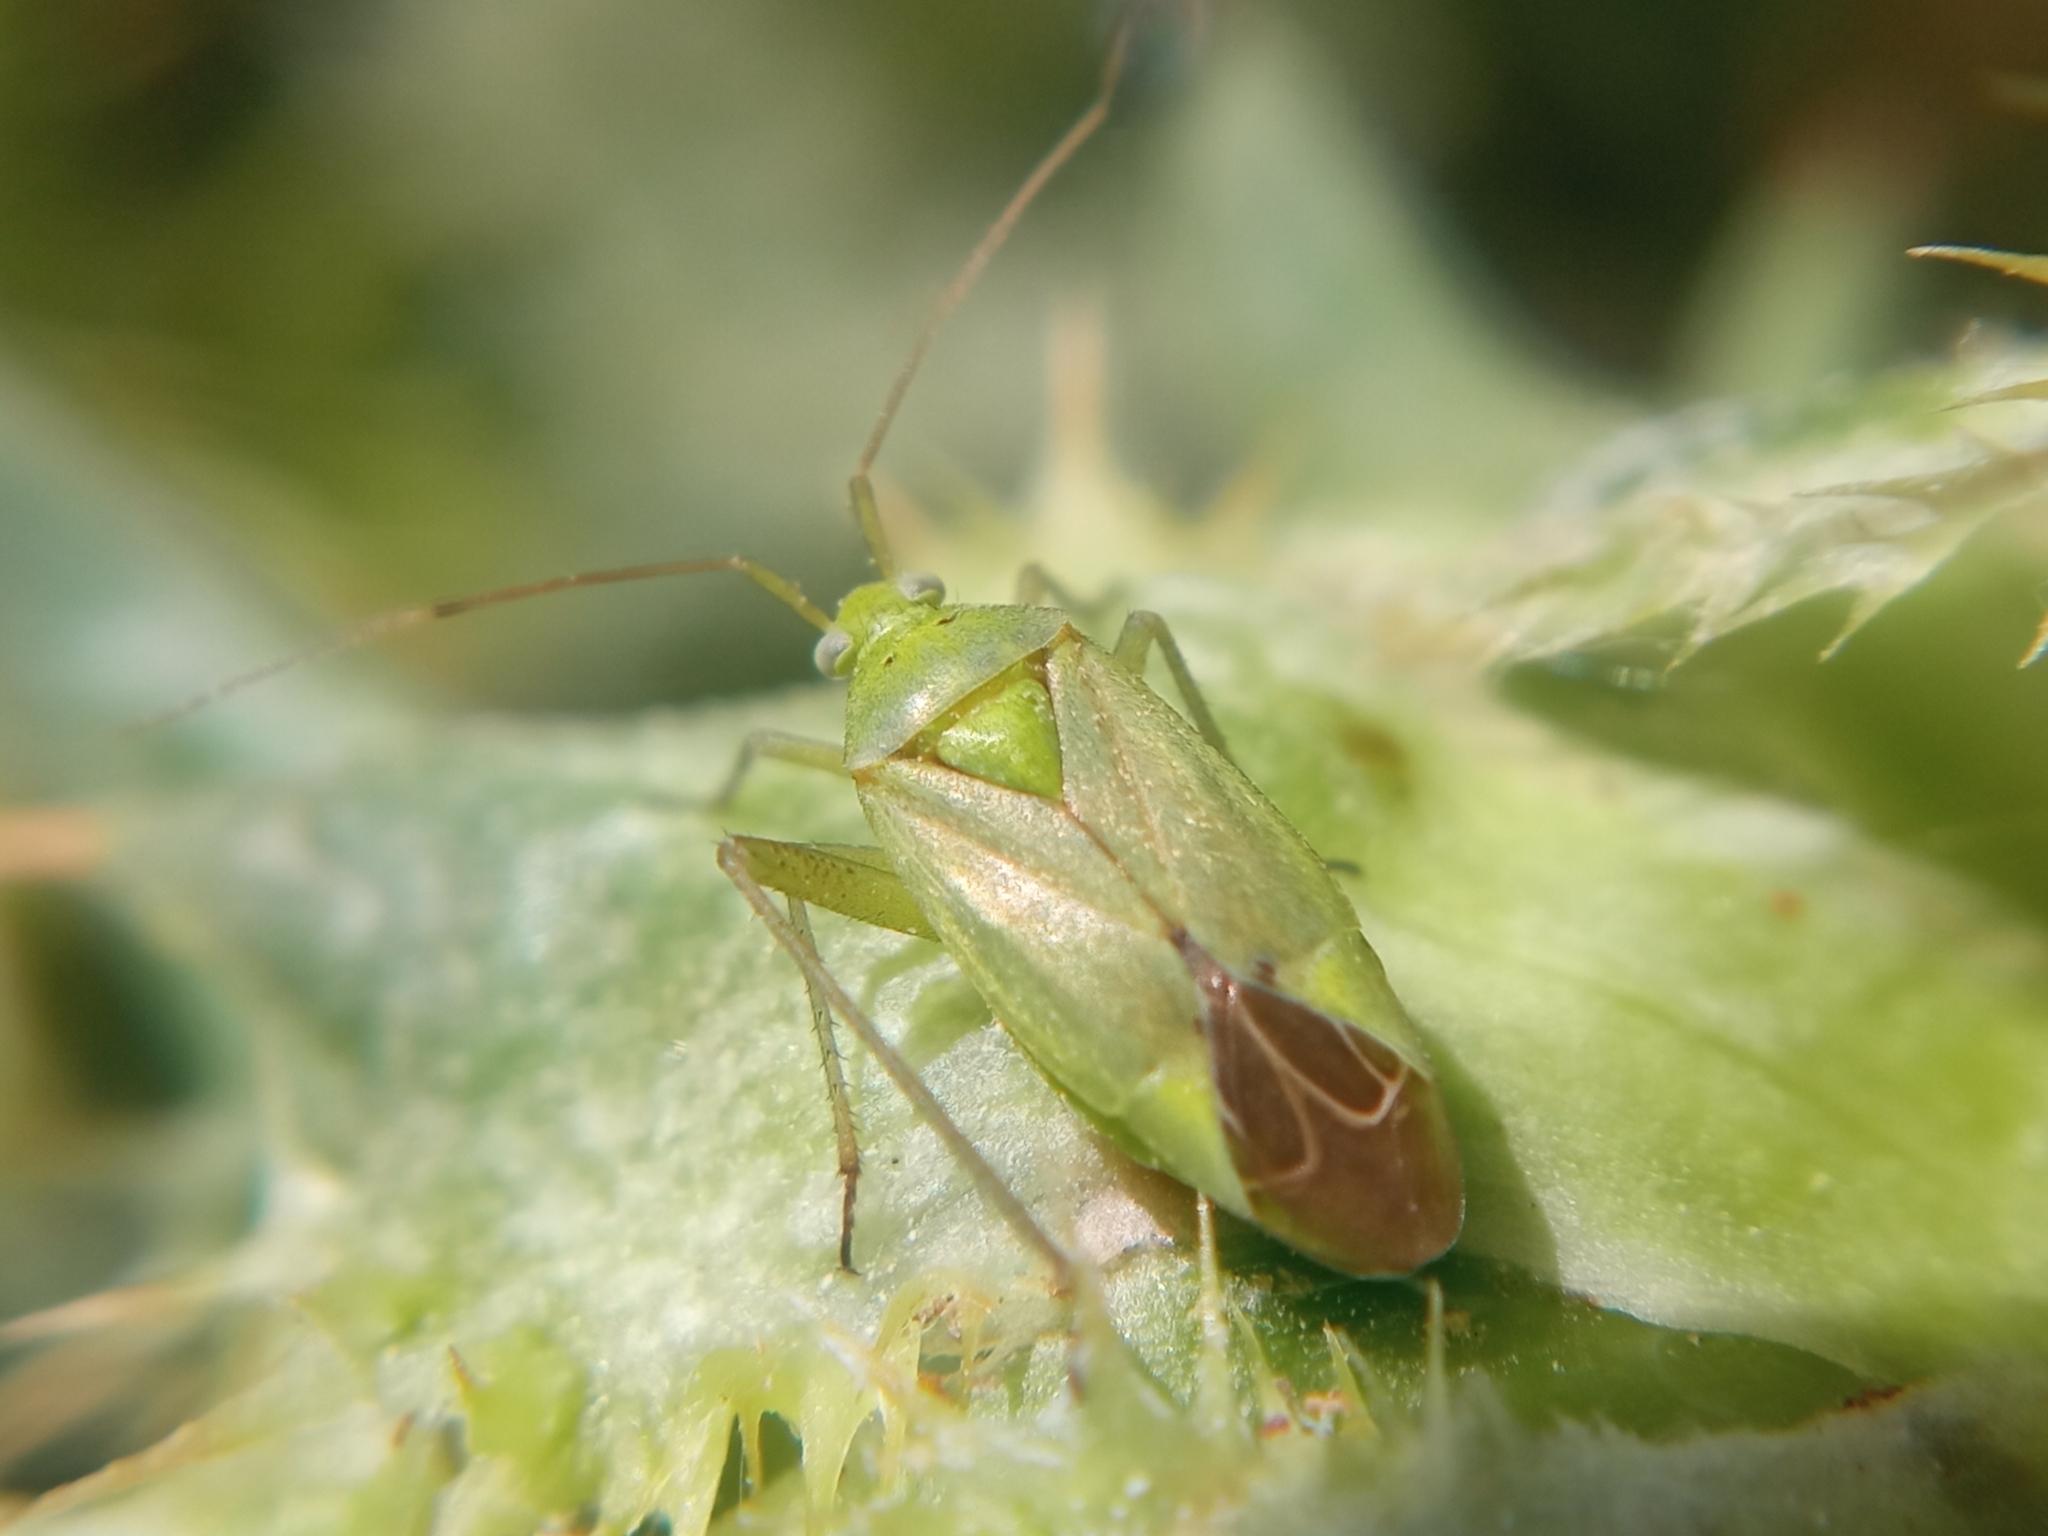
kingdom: Animalia
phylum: Arthropoda
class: Insecta
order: Hemiptera
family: Miridae
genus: Closterotomus
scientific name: Closterotomus norvegicus
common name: Plant bug
